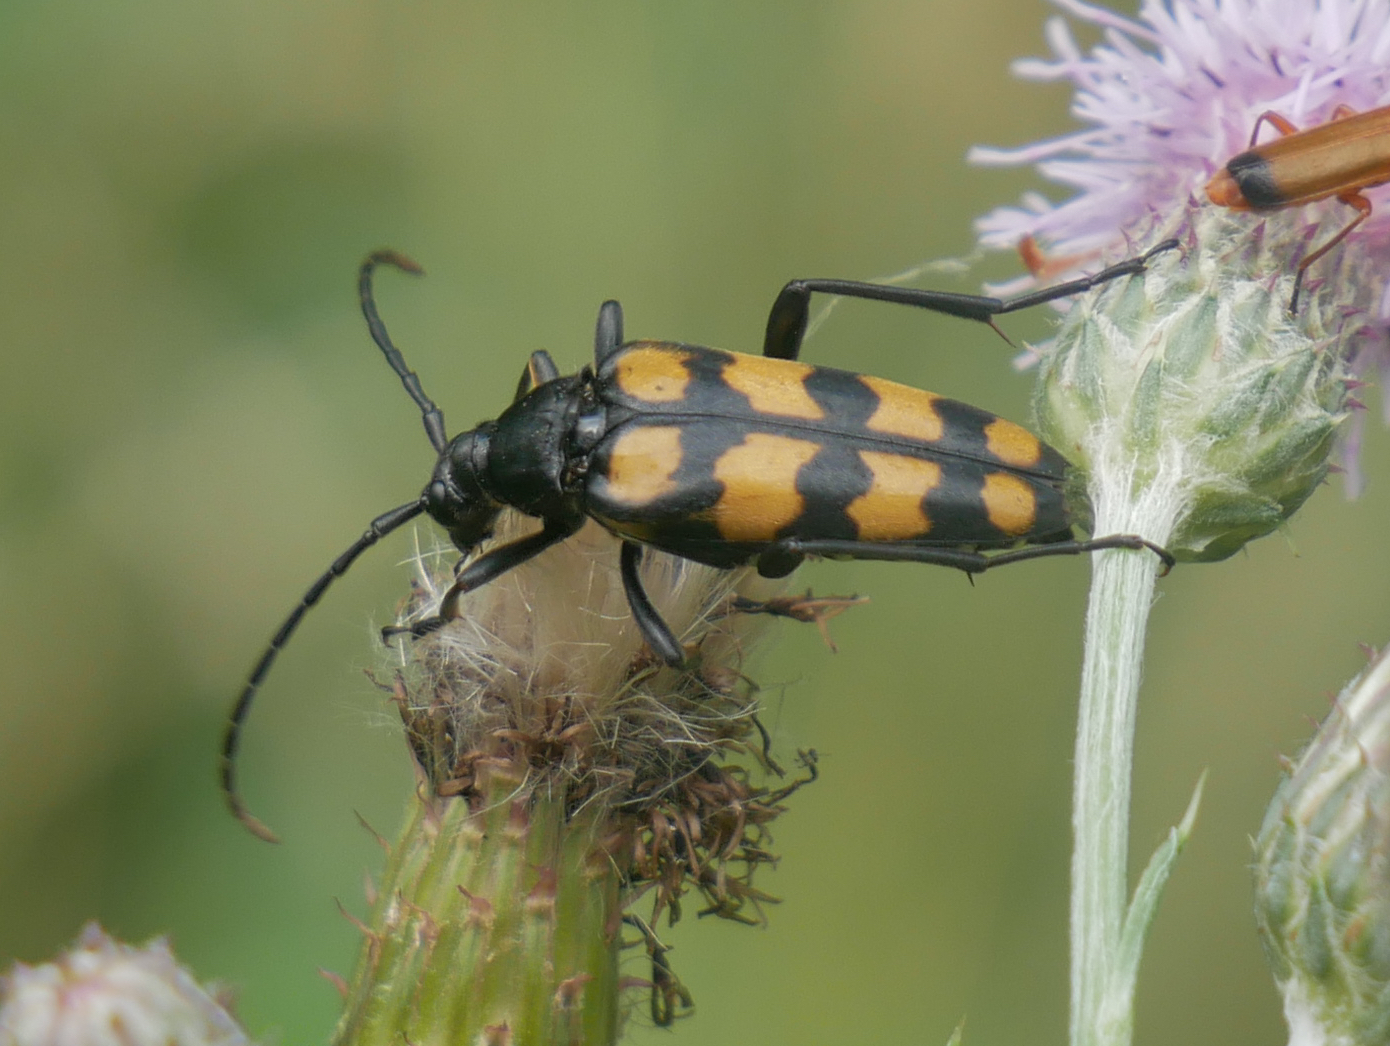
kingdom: Animalia
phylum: Arthropoda
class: Insecta
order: Coleoptera
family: Cerambycidae
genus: Leptura
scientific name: Leptura quadrifasciata
